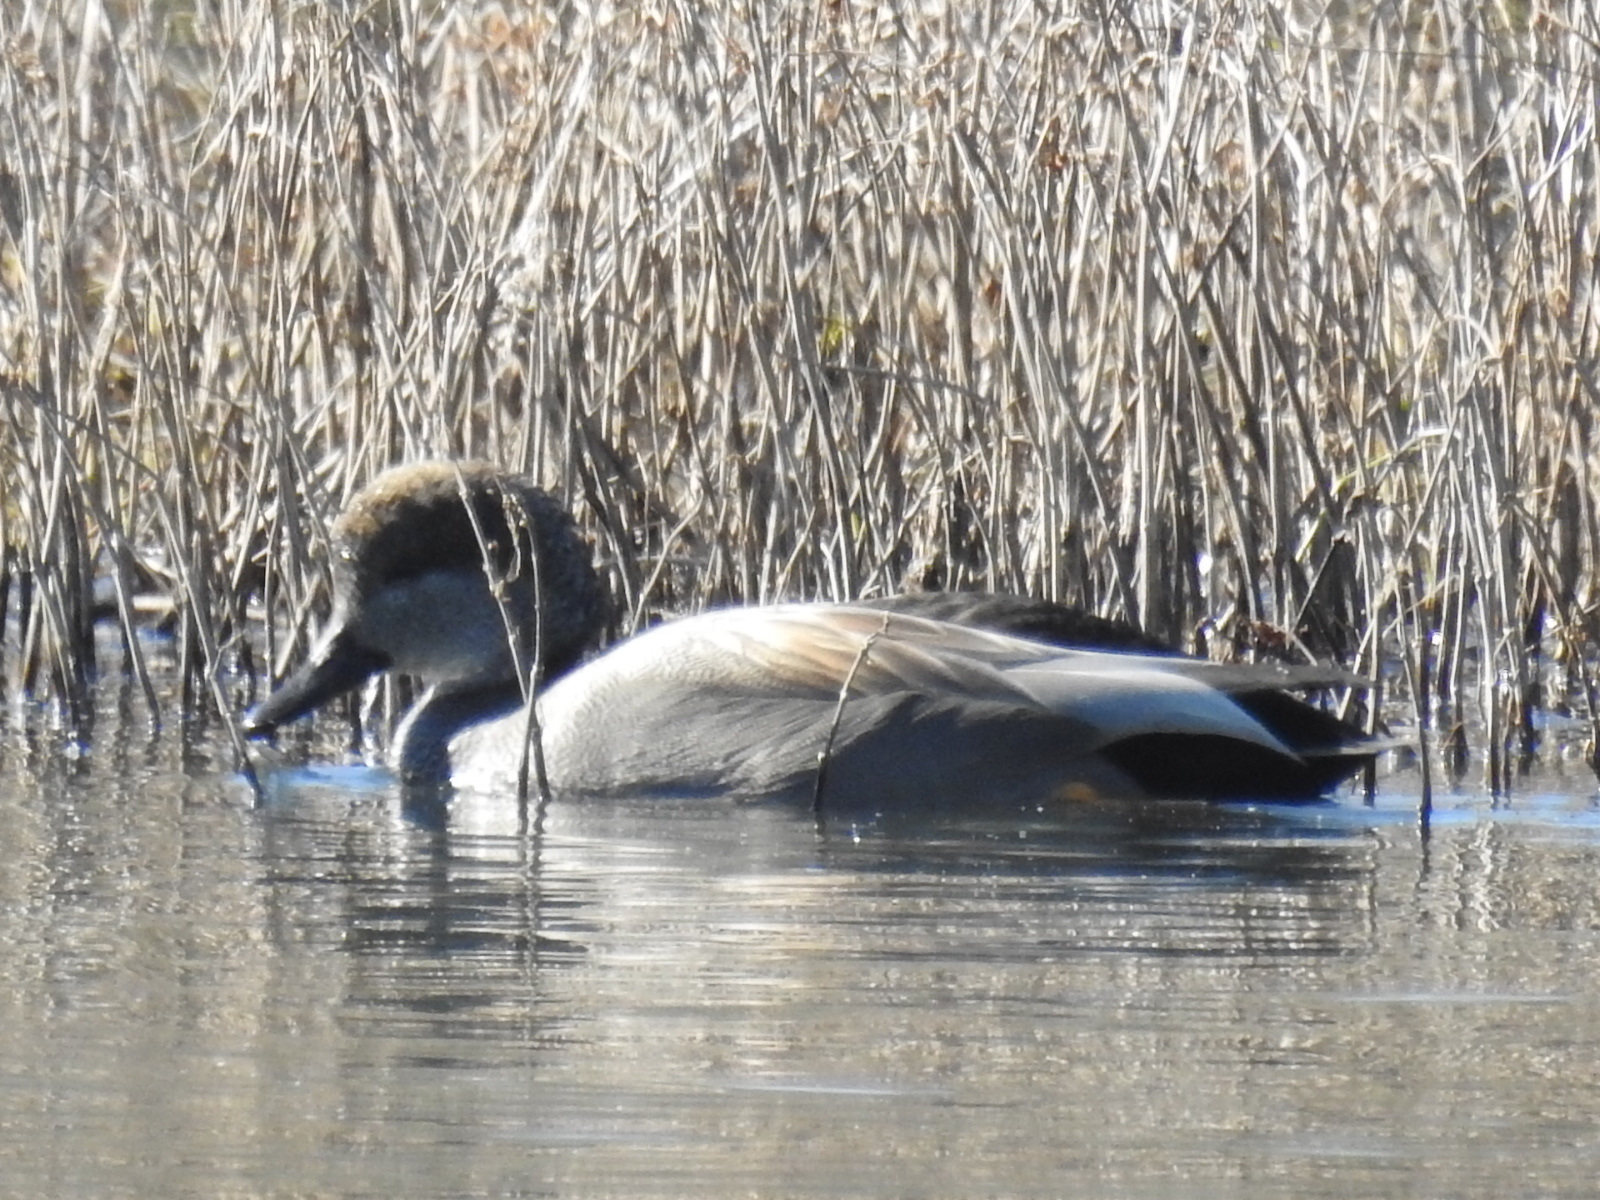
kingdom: Animalia
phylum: Chordata
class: Aves
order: Anseriformes
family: Anatidae
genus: Mareca
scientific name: Mareca strepera
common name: Gadwall
